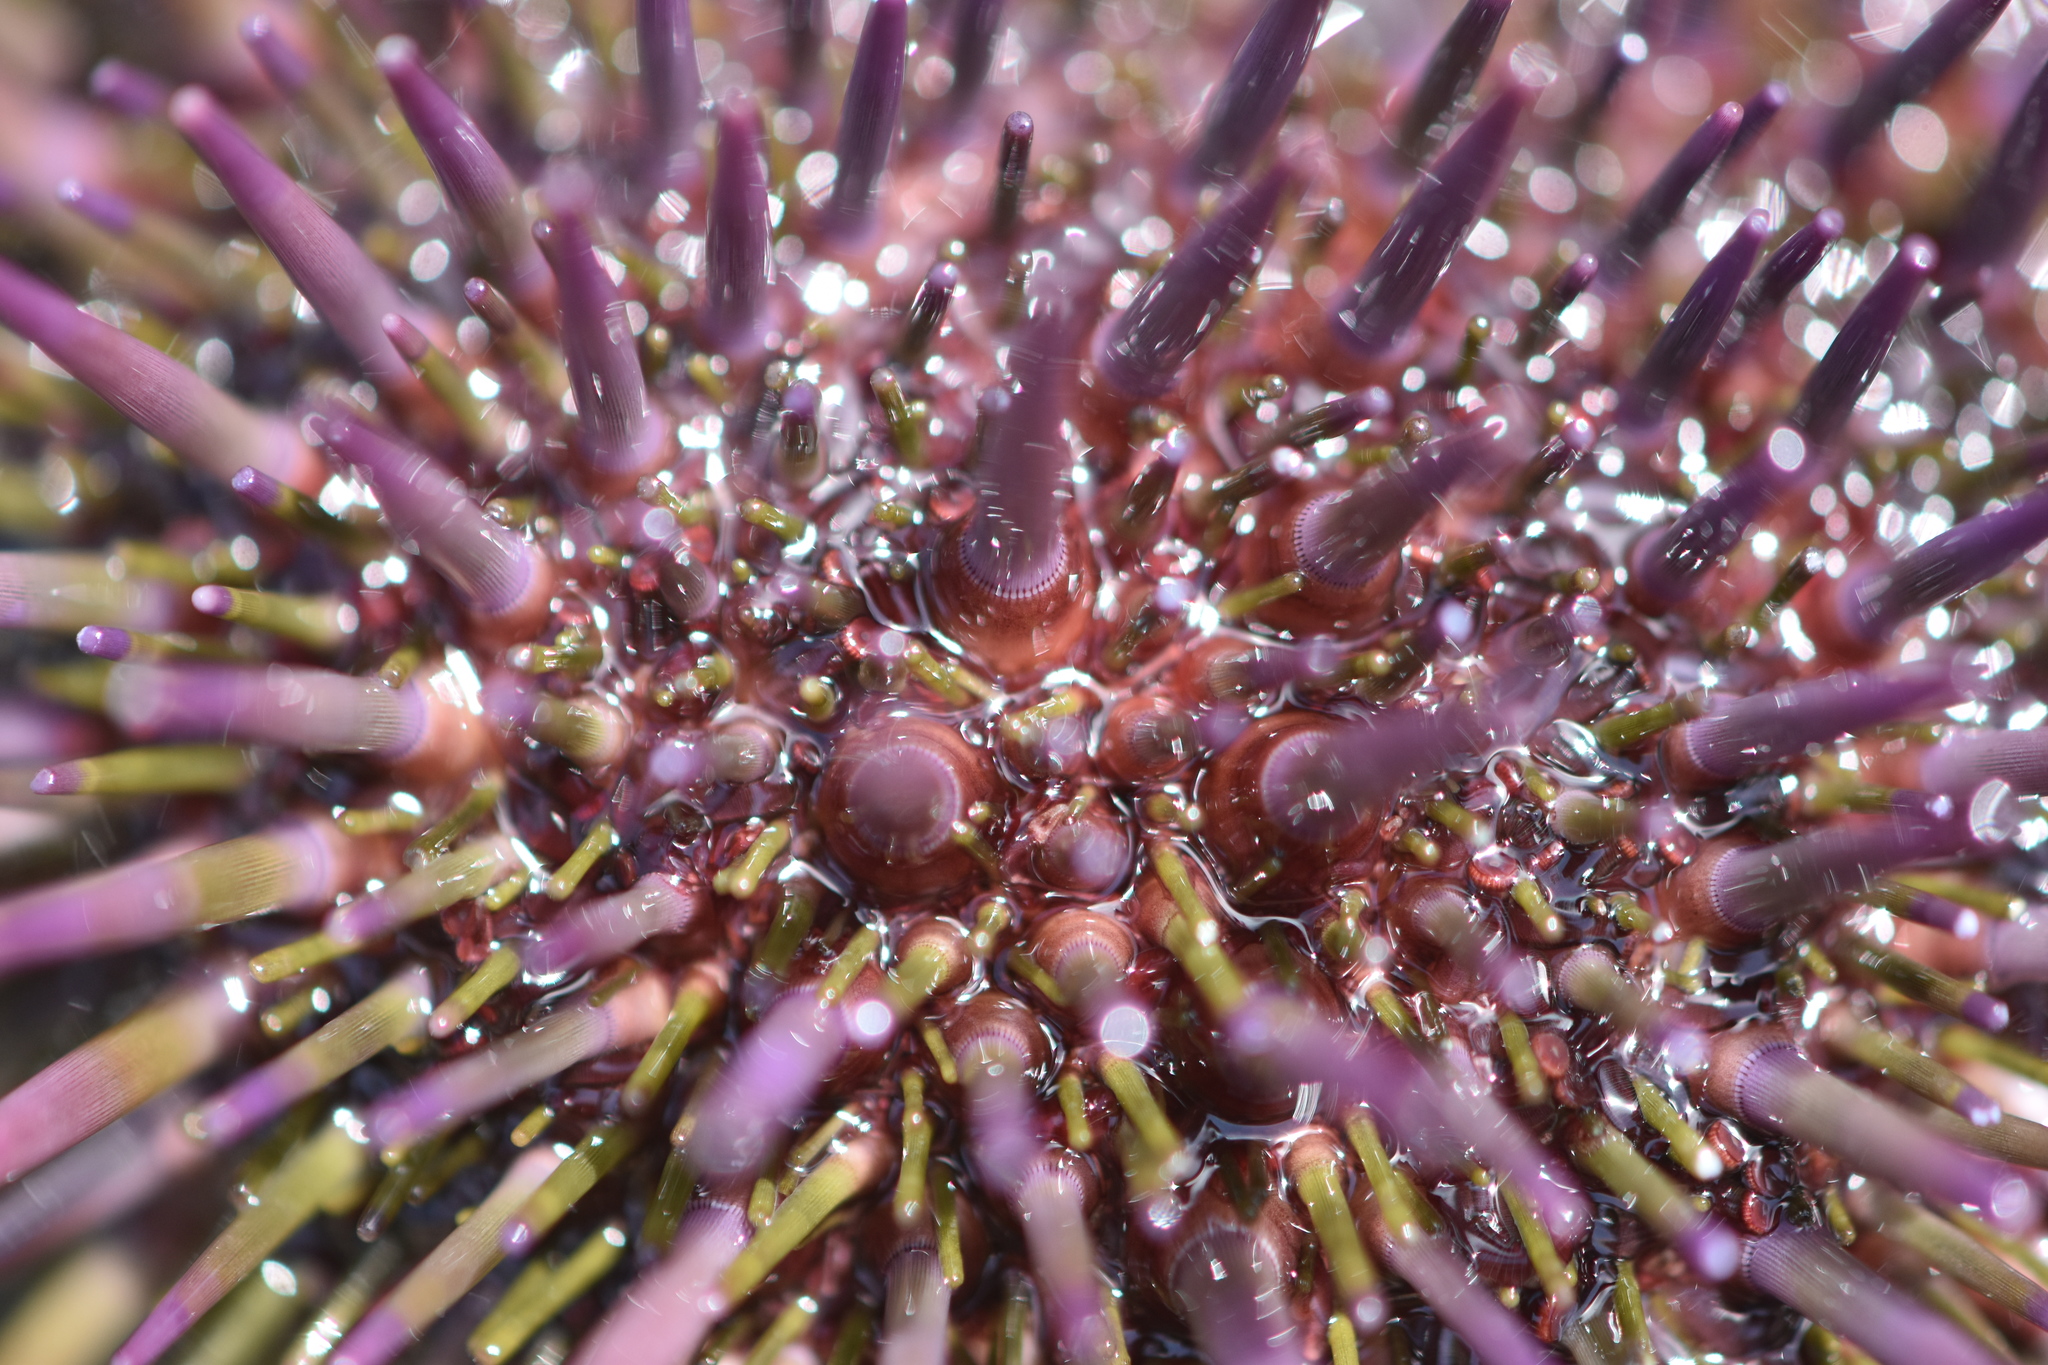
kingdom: Animalia
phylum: Echinodermata
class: Echinoidea
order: Camarodonta
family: Strongylocentrotidae
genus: Strongylocentrotus
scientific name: Strongylocentrotus purpuratus
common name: Purple sea urchin
